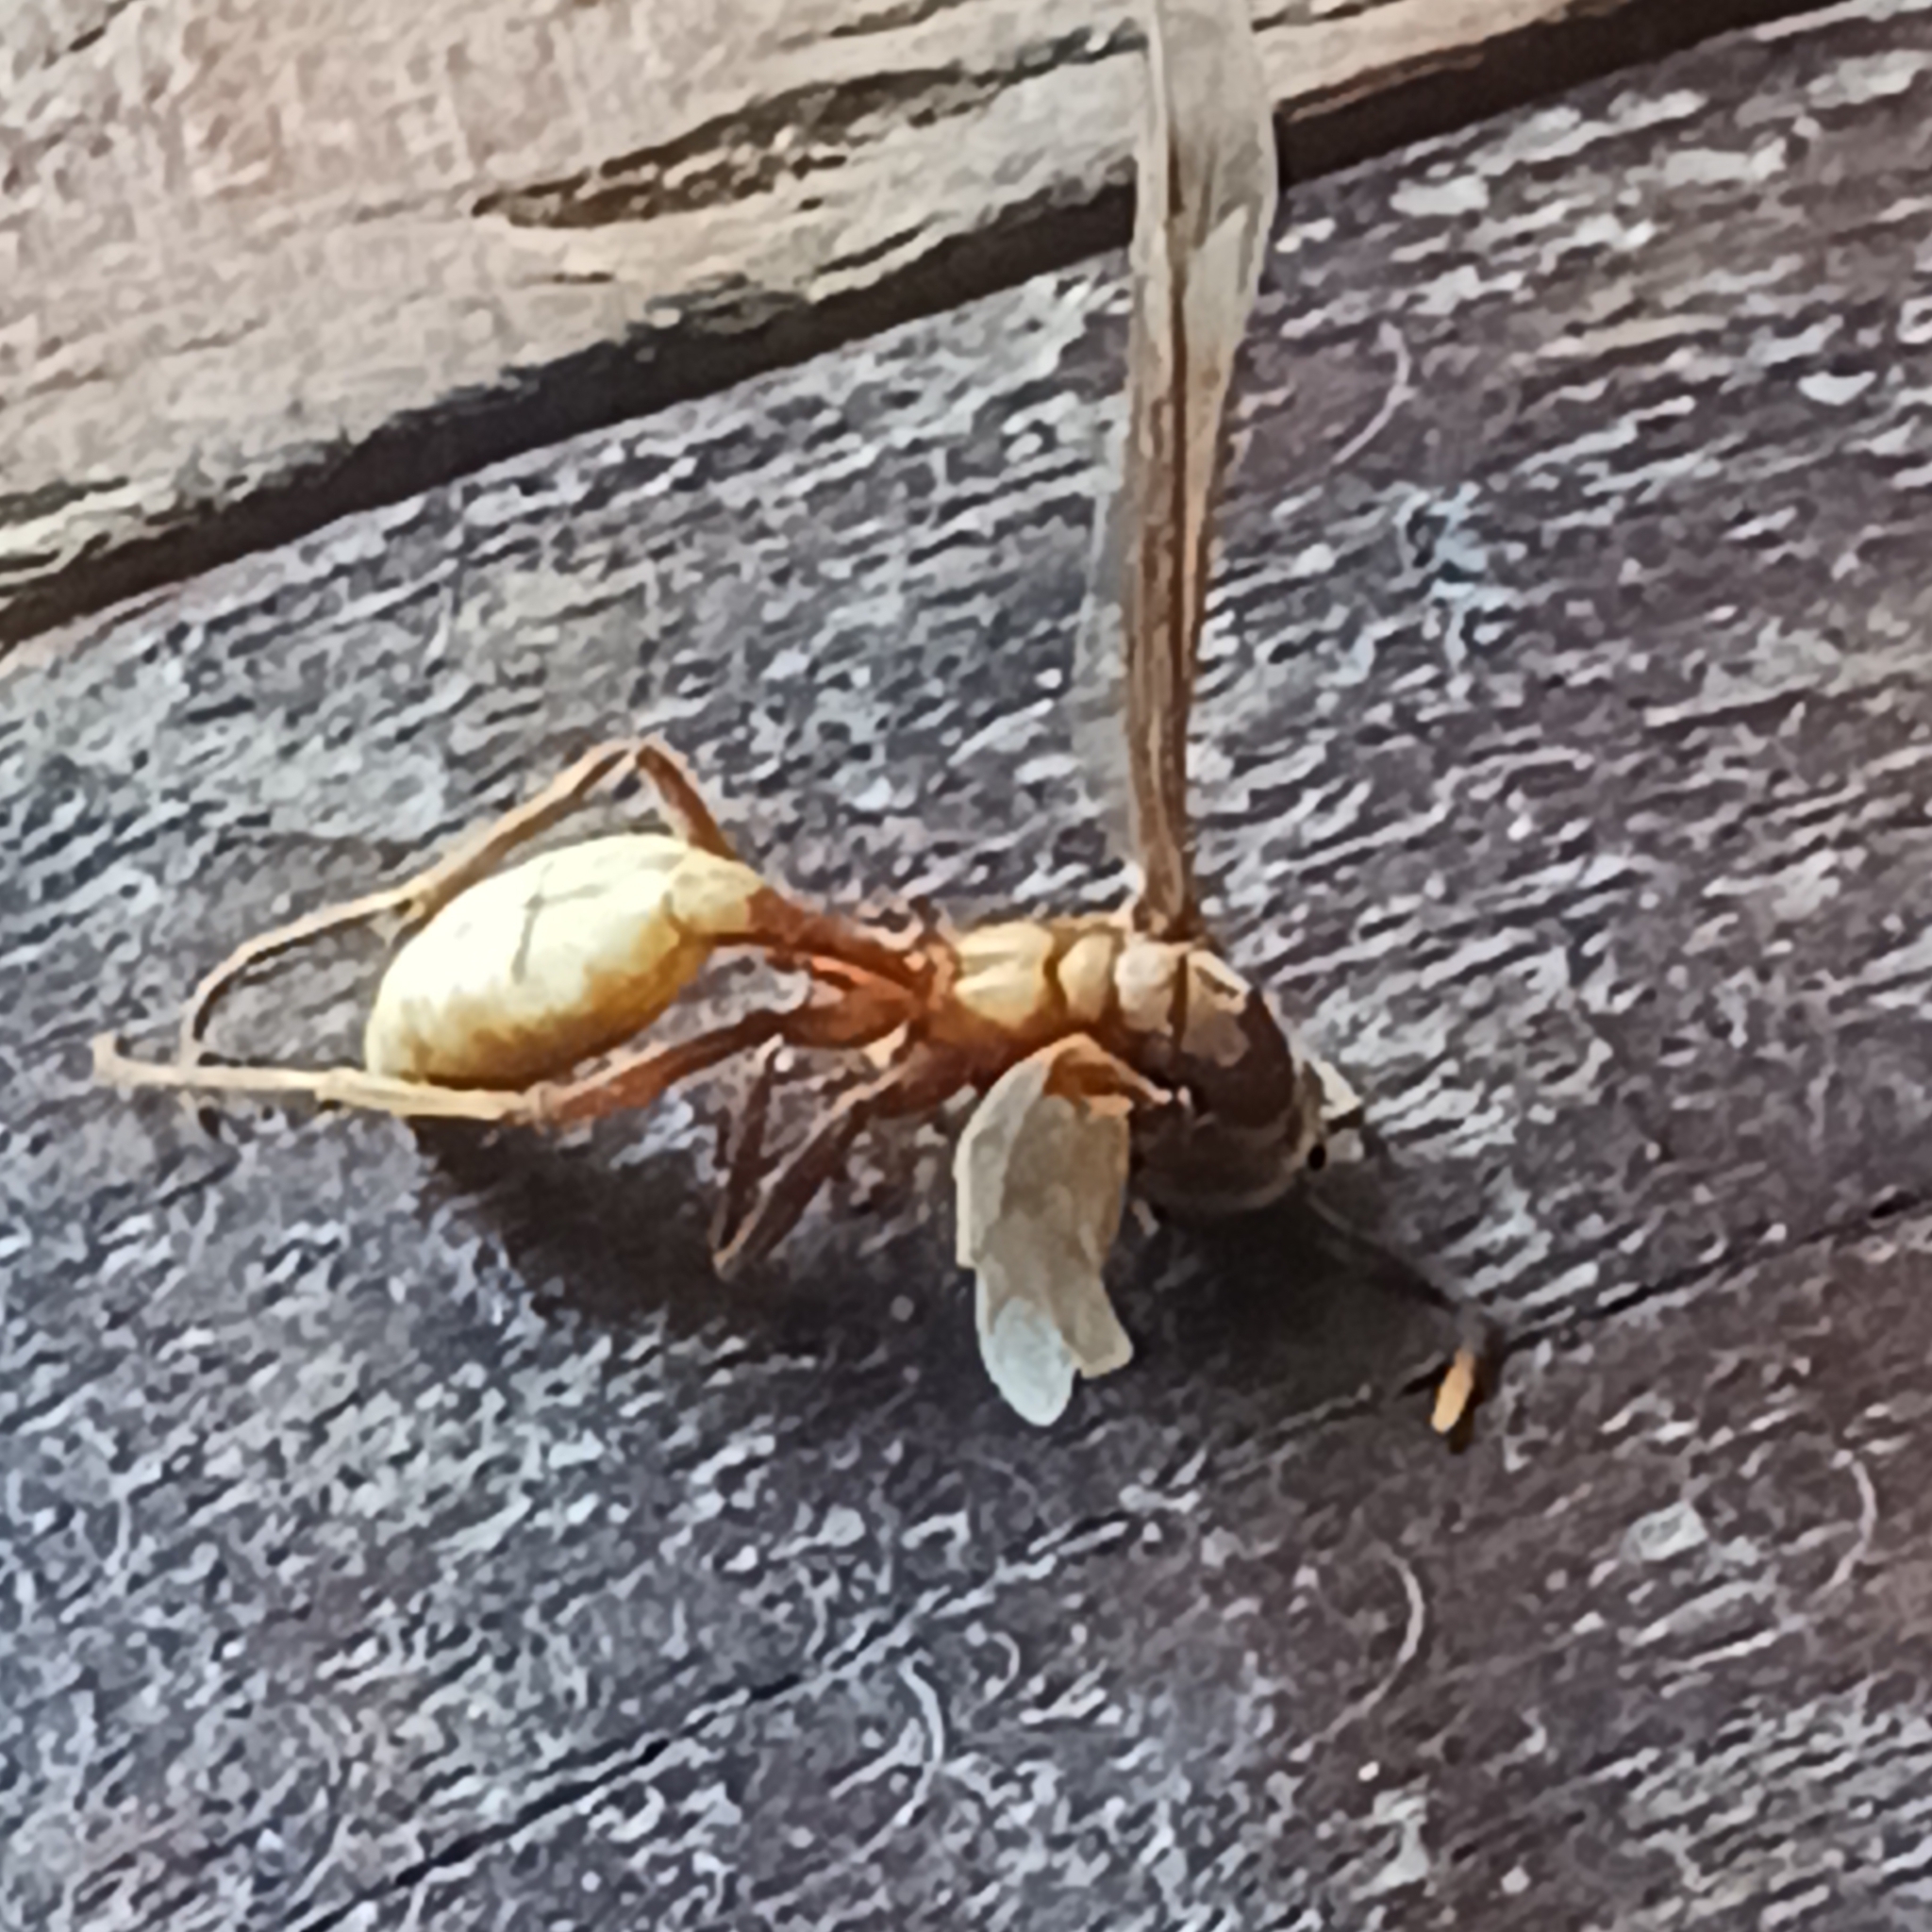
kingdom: Animalia
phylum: Arthropoda
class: Insecta
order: Hymenoptera
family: Vespidae
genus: Apoica
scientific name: Apoica pallens
